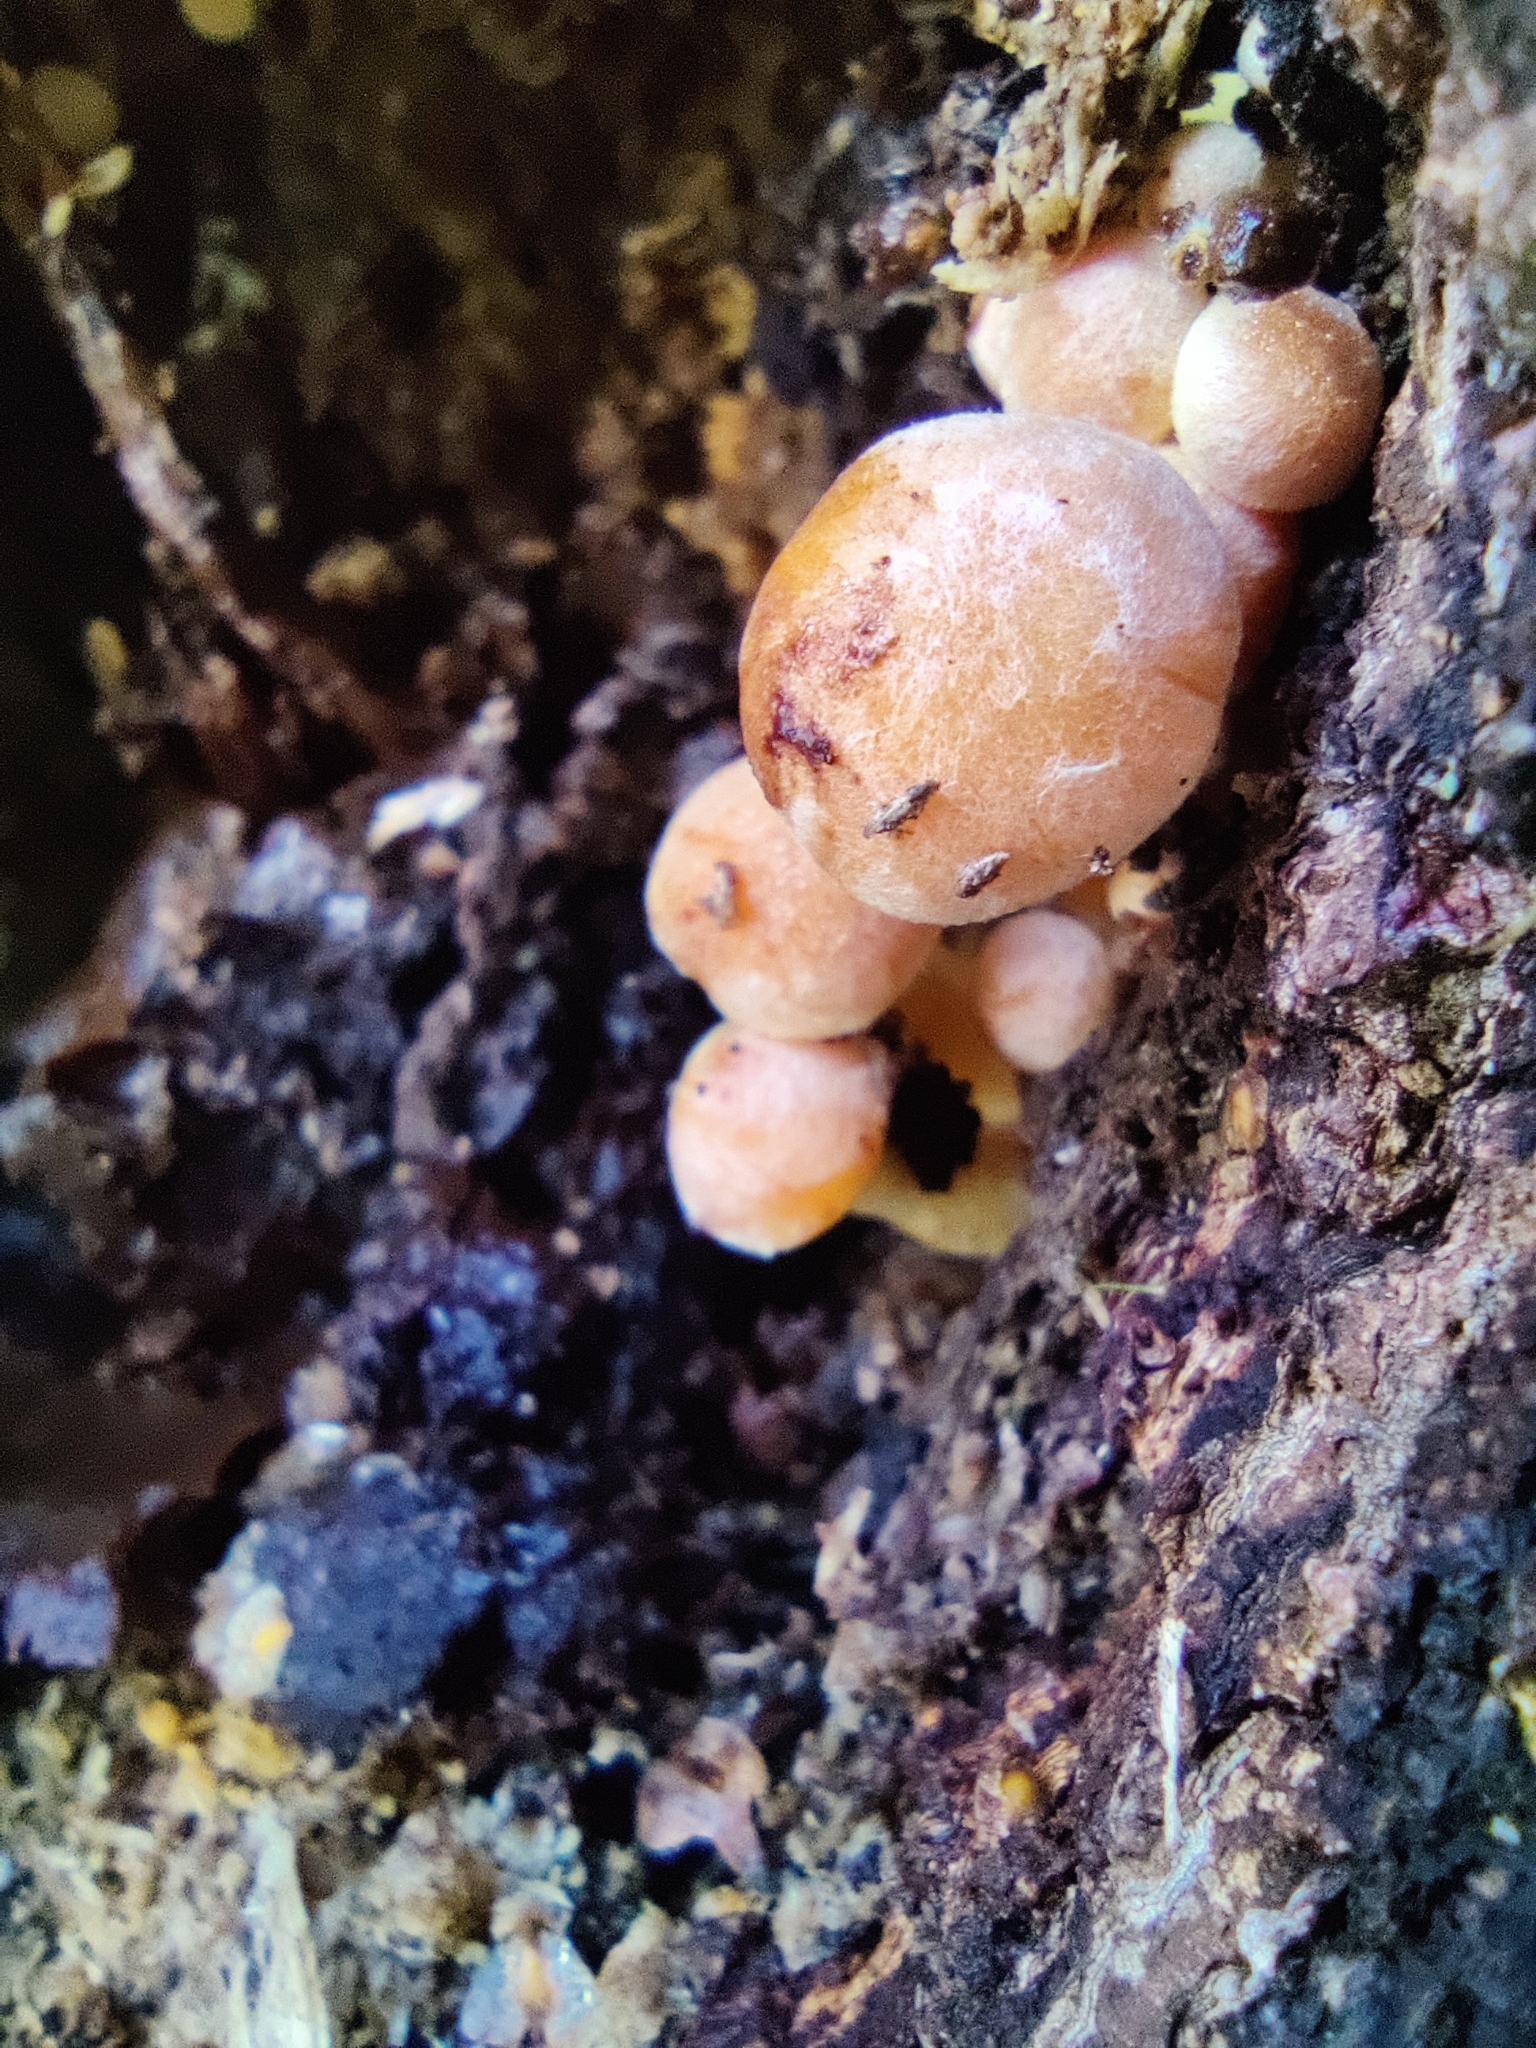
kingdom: Fungi
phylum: Basidiomycota
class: Agaricomycetes
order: Agaricales
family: Strophariaceae
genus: Hypholoma
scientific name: Hypholoma lateritium
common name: Brick caps
